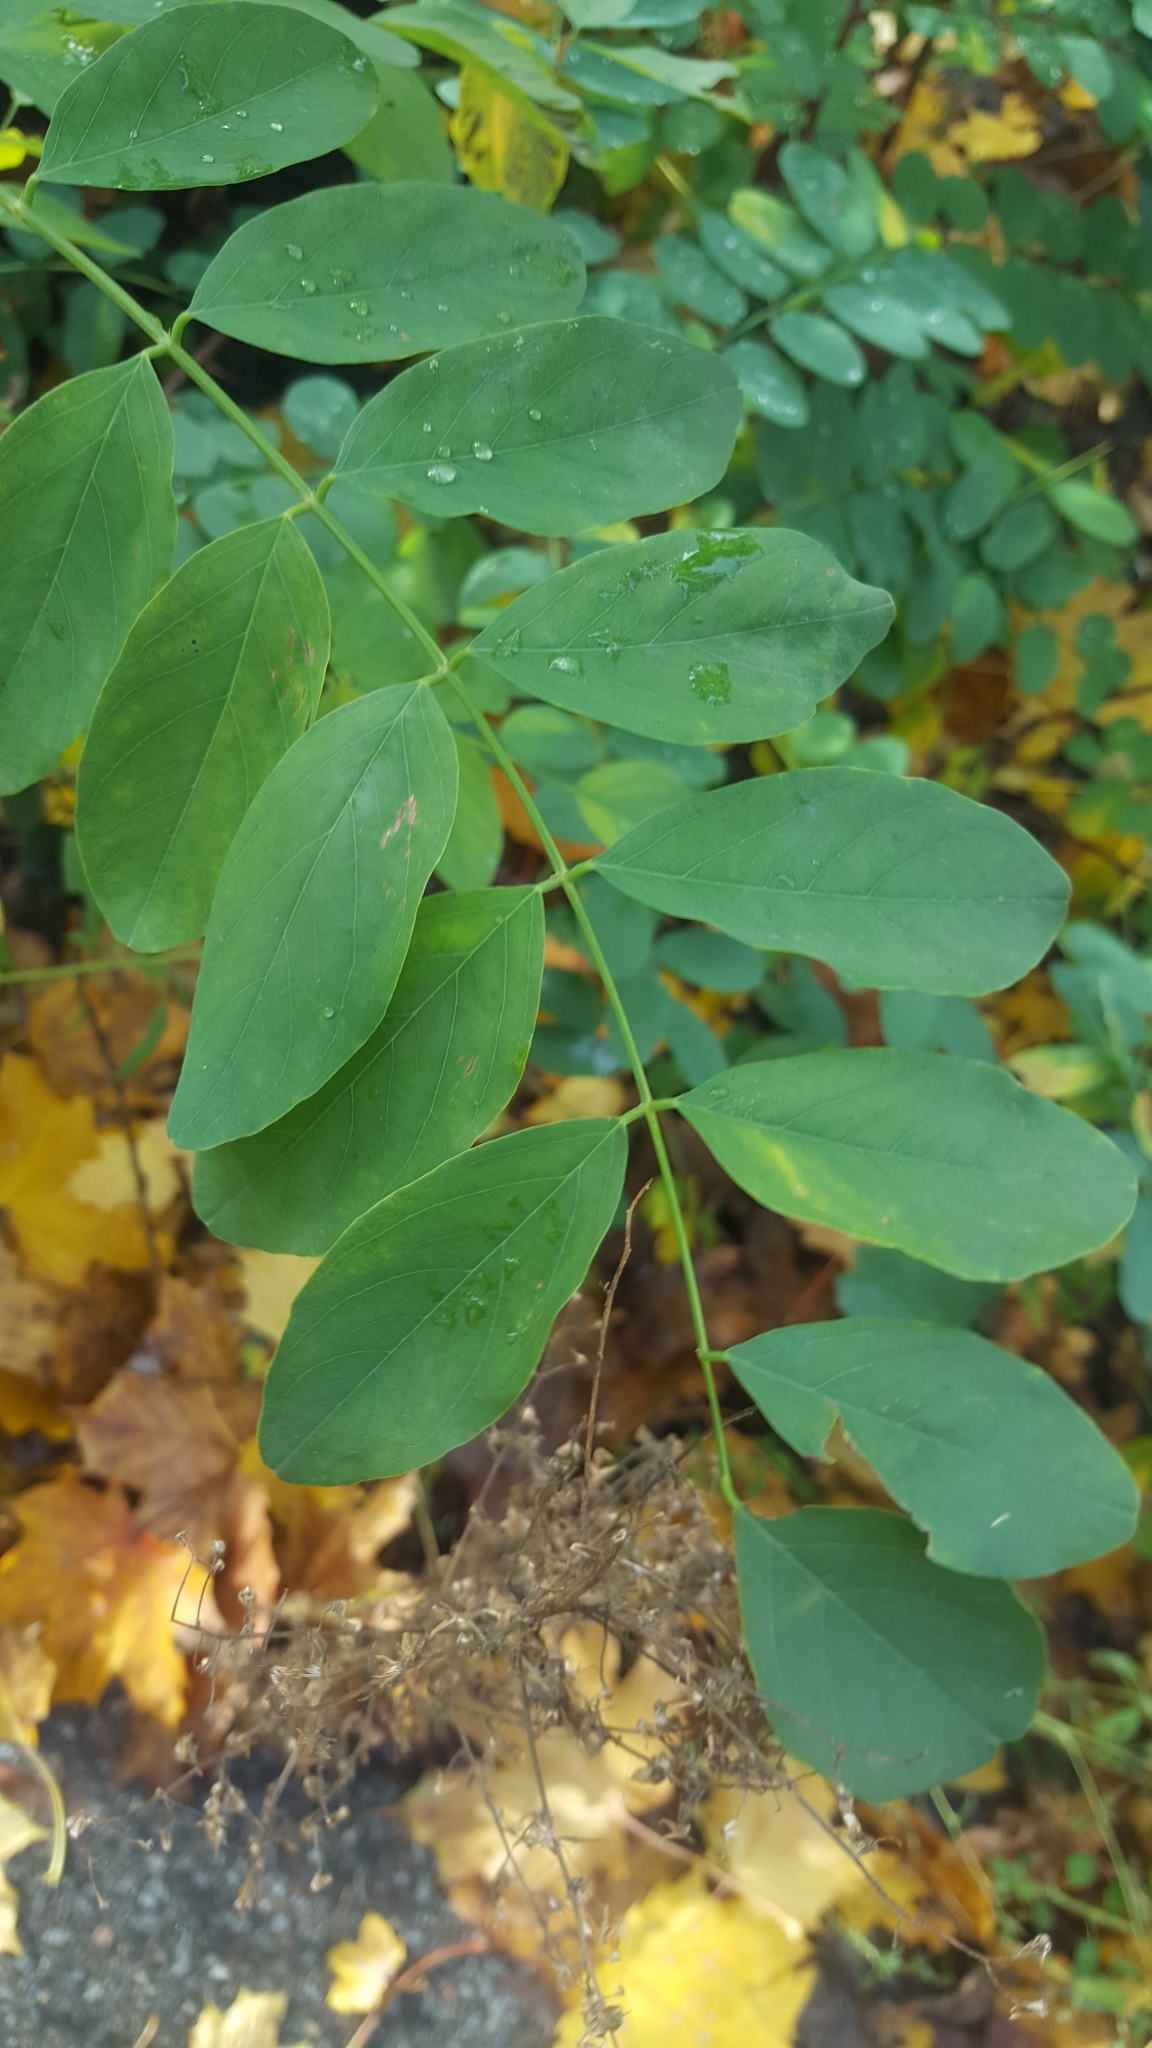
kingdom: Plantae
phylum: Tracheophyta
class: Magnoliopsida
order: Fabales
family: Fabaceae
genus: Robinia
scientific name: Robinia pseudoacacia
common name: Black locust
